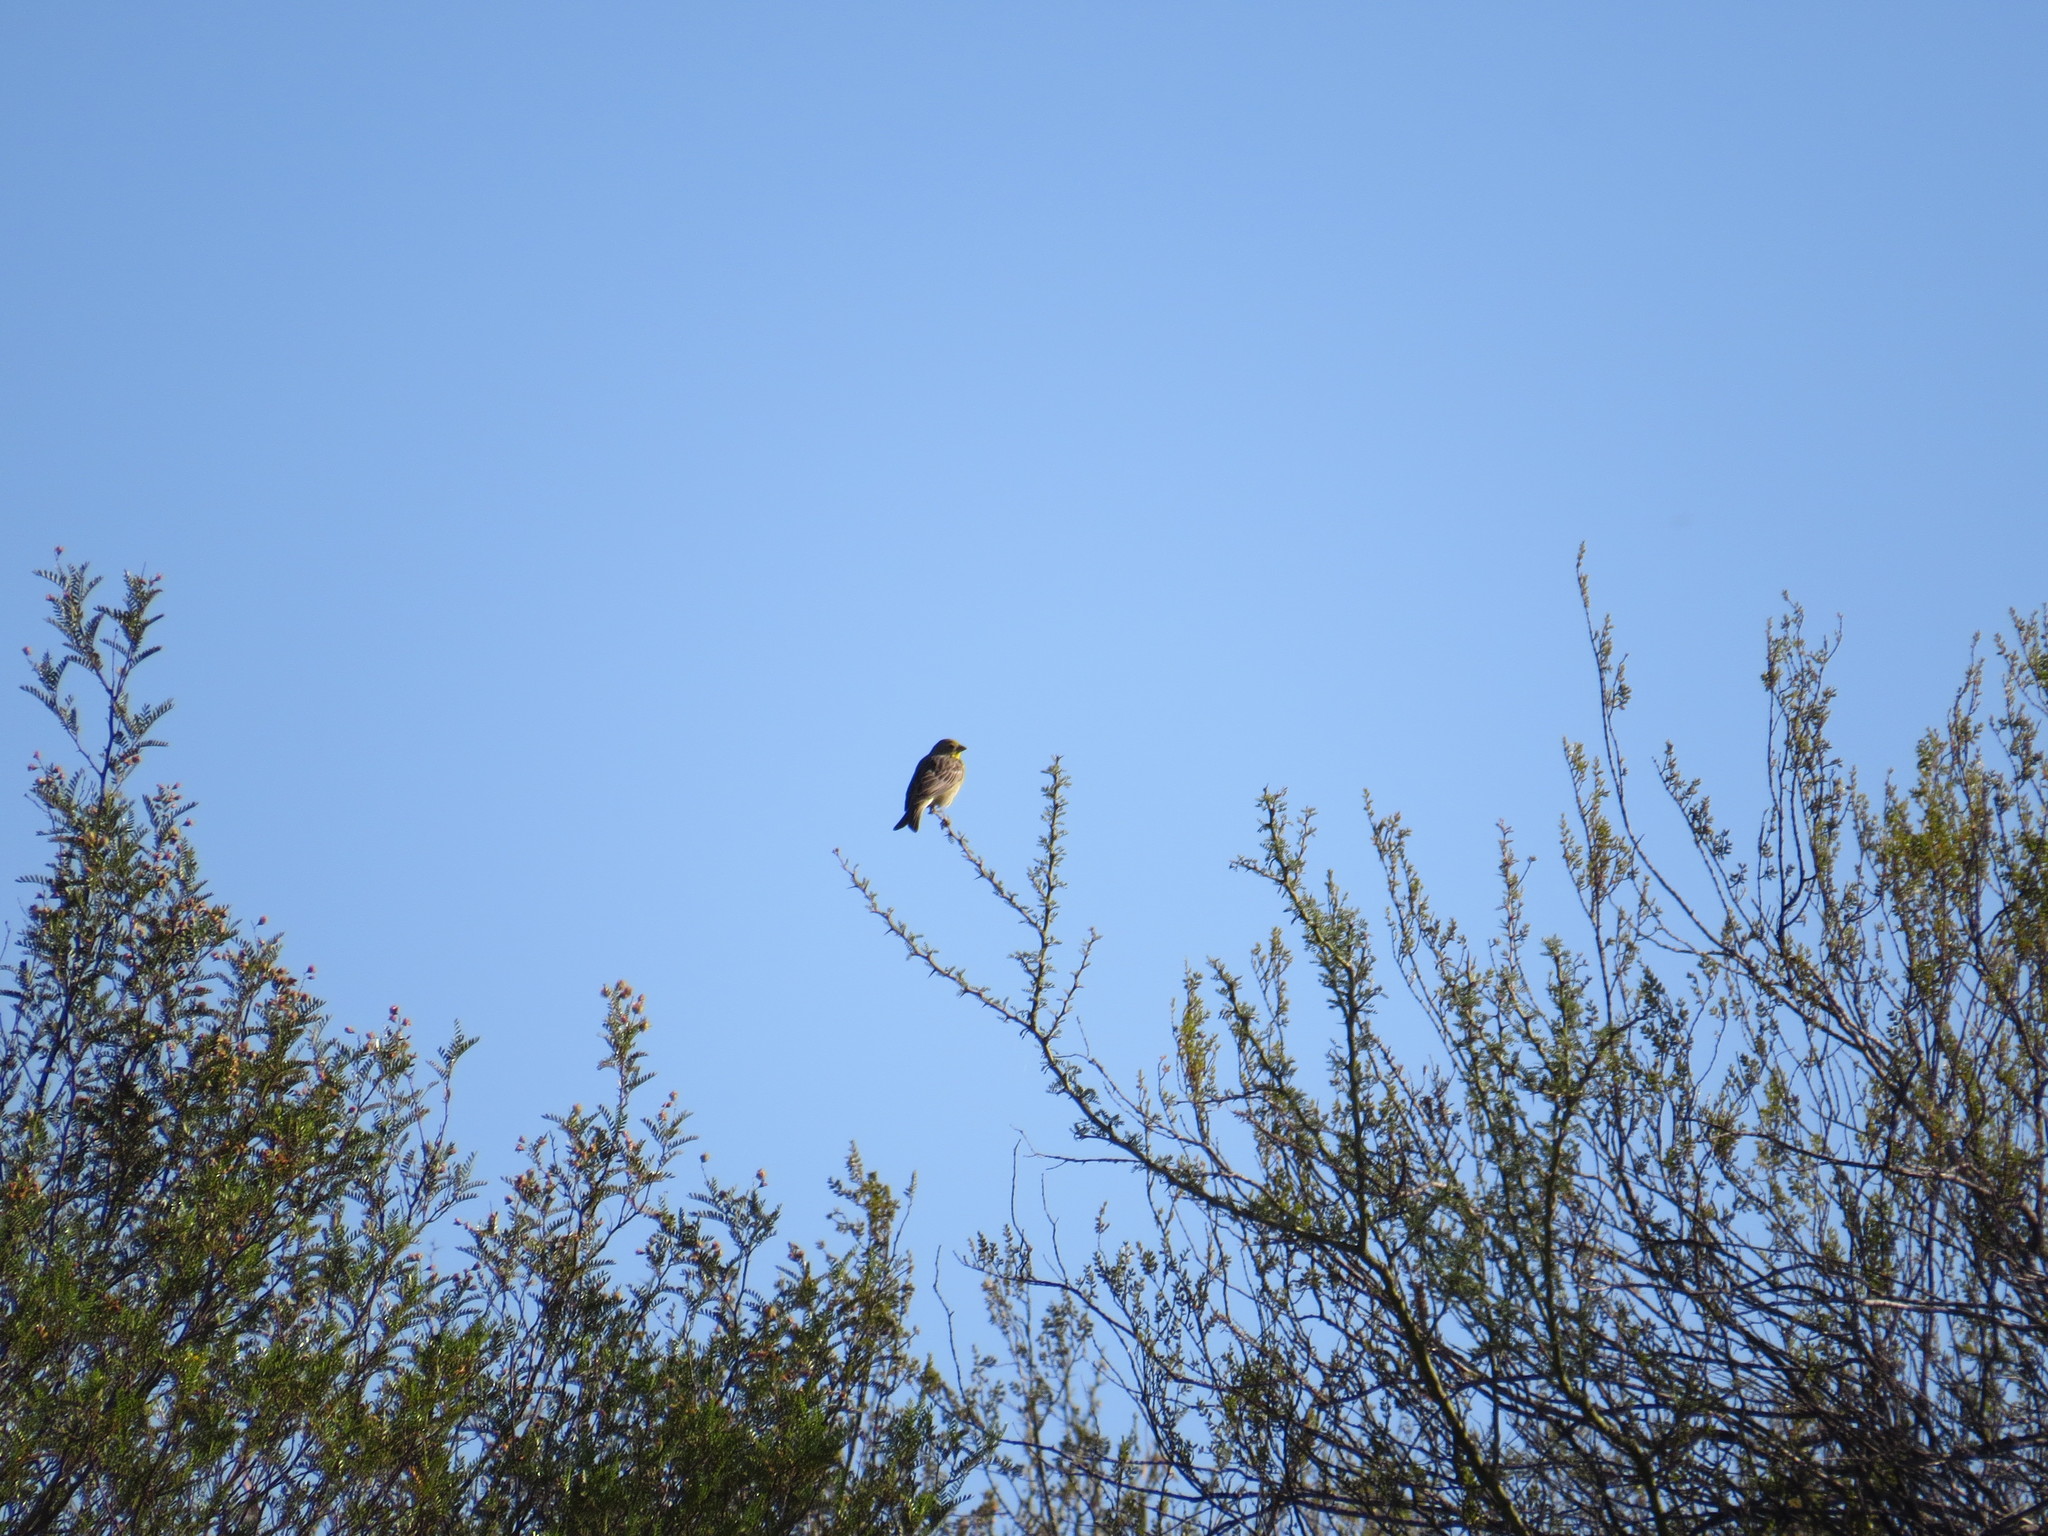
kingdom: Animalia
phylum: Chordata
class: Aves
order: Passeriformes
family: Thraupidae
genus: Sicalis
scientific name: Sicalis luteola
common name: Grassland yellow-finch
